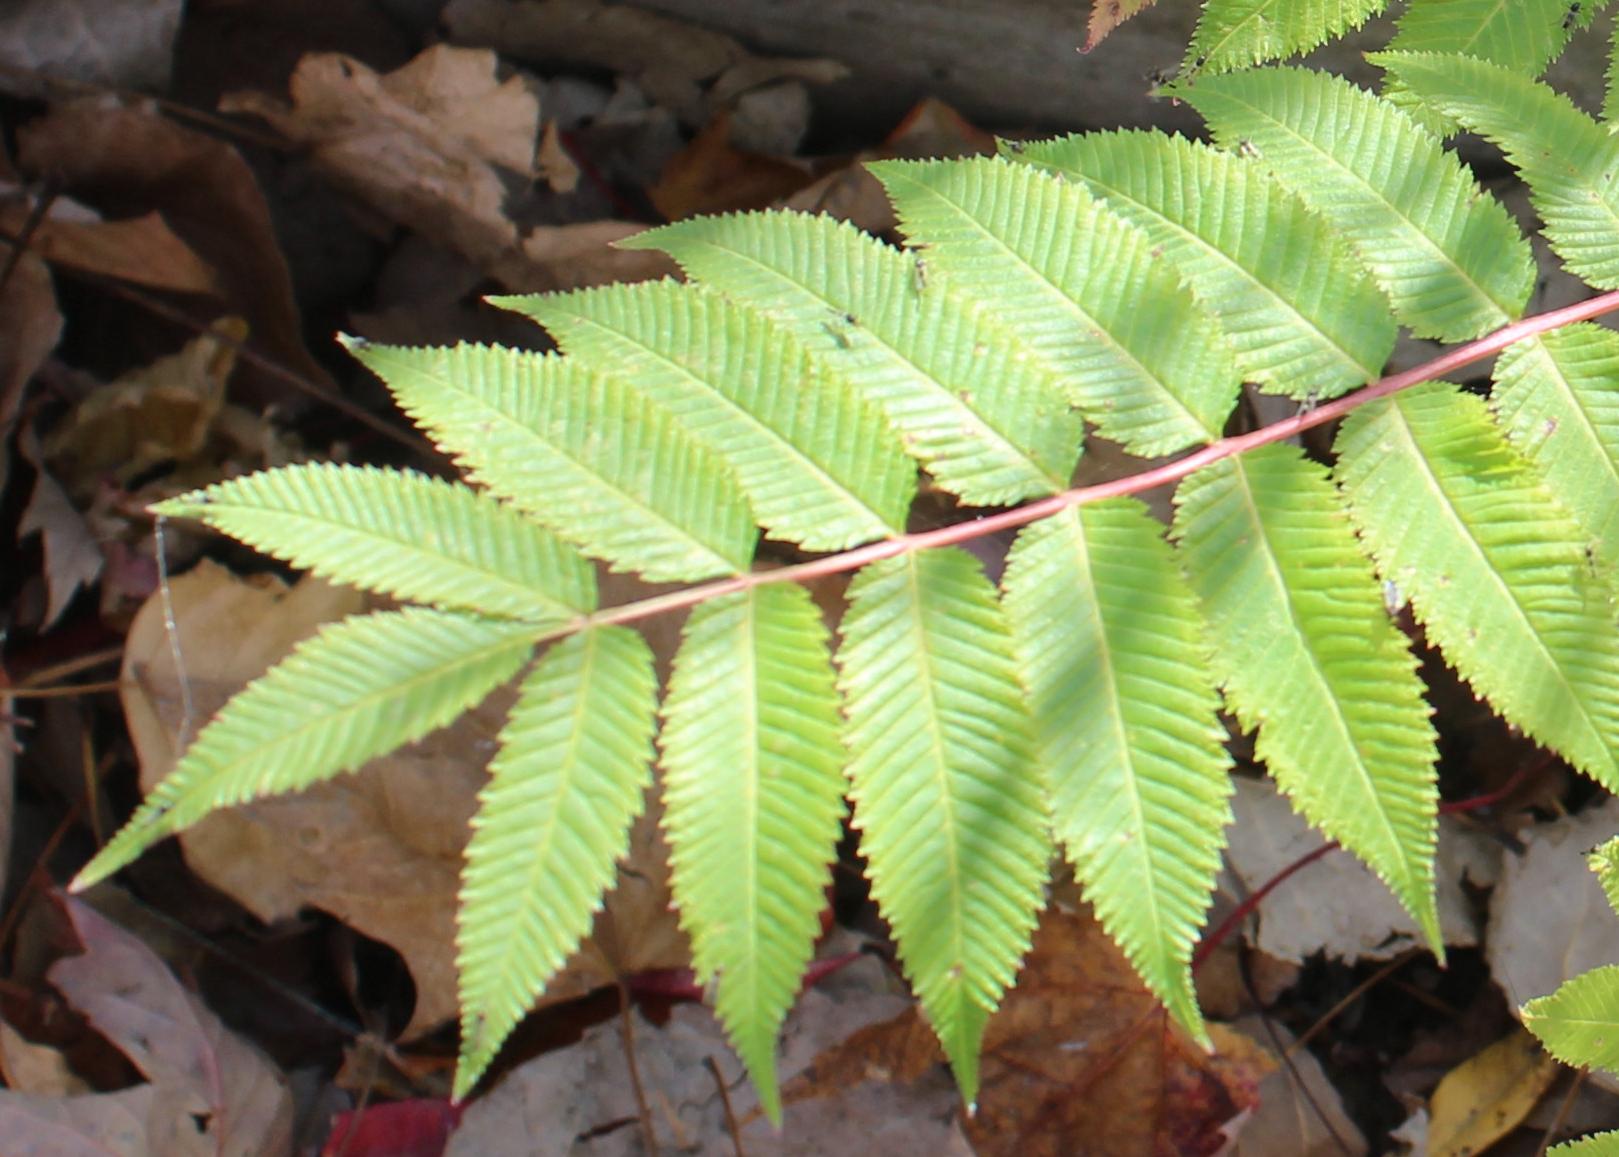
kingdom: Plantae
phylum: Tracheophyta
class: Magnoliopsida
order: Rosales
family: Rosaceae
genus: Sorbaria
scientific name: Sorbaria sorbifolia
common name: False spiraea
